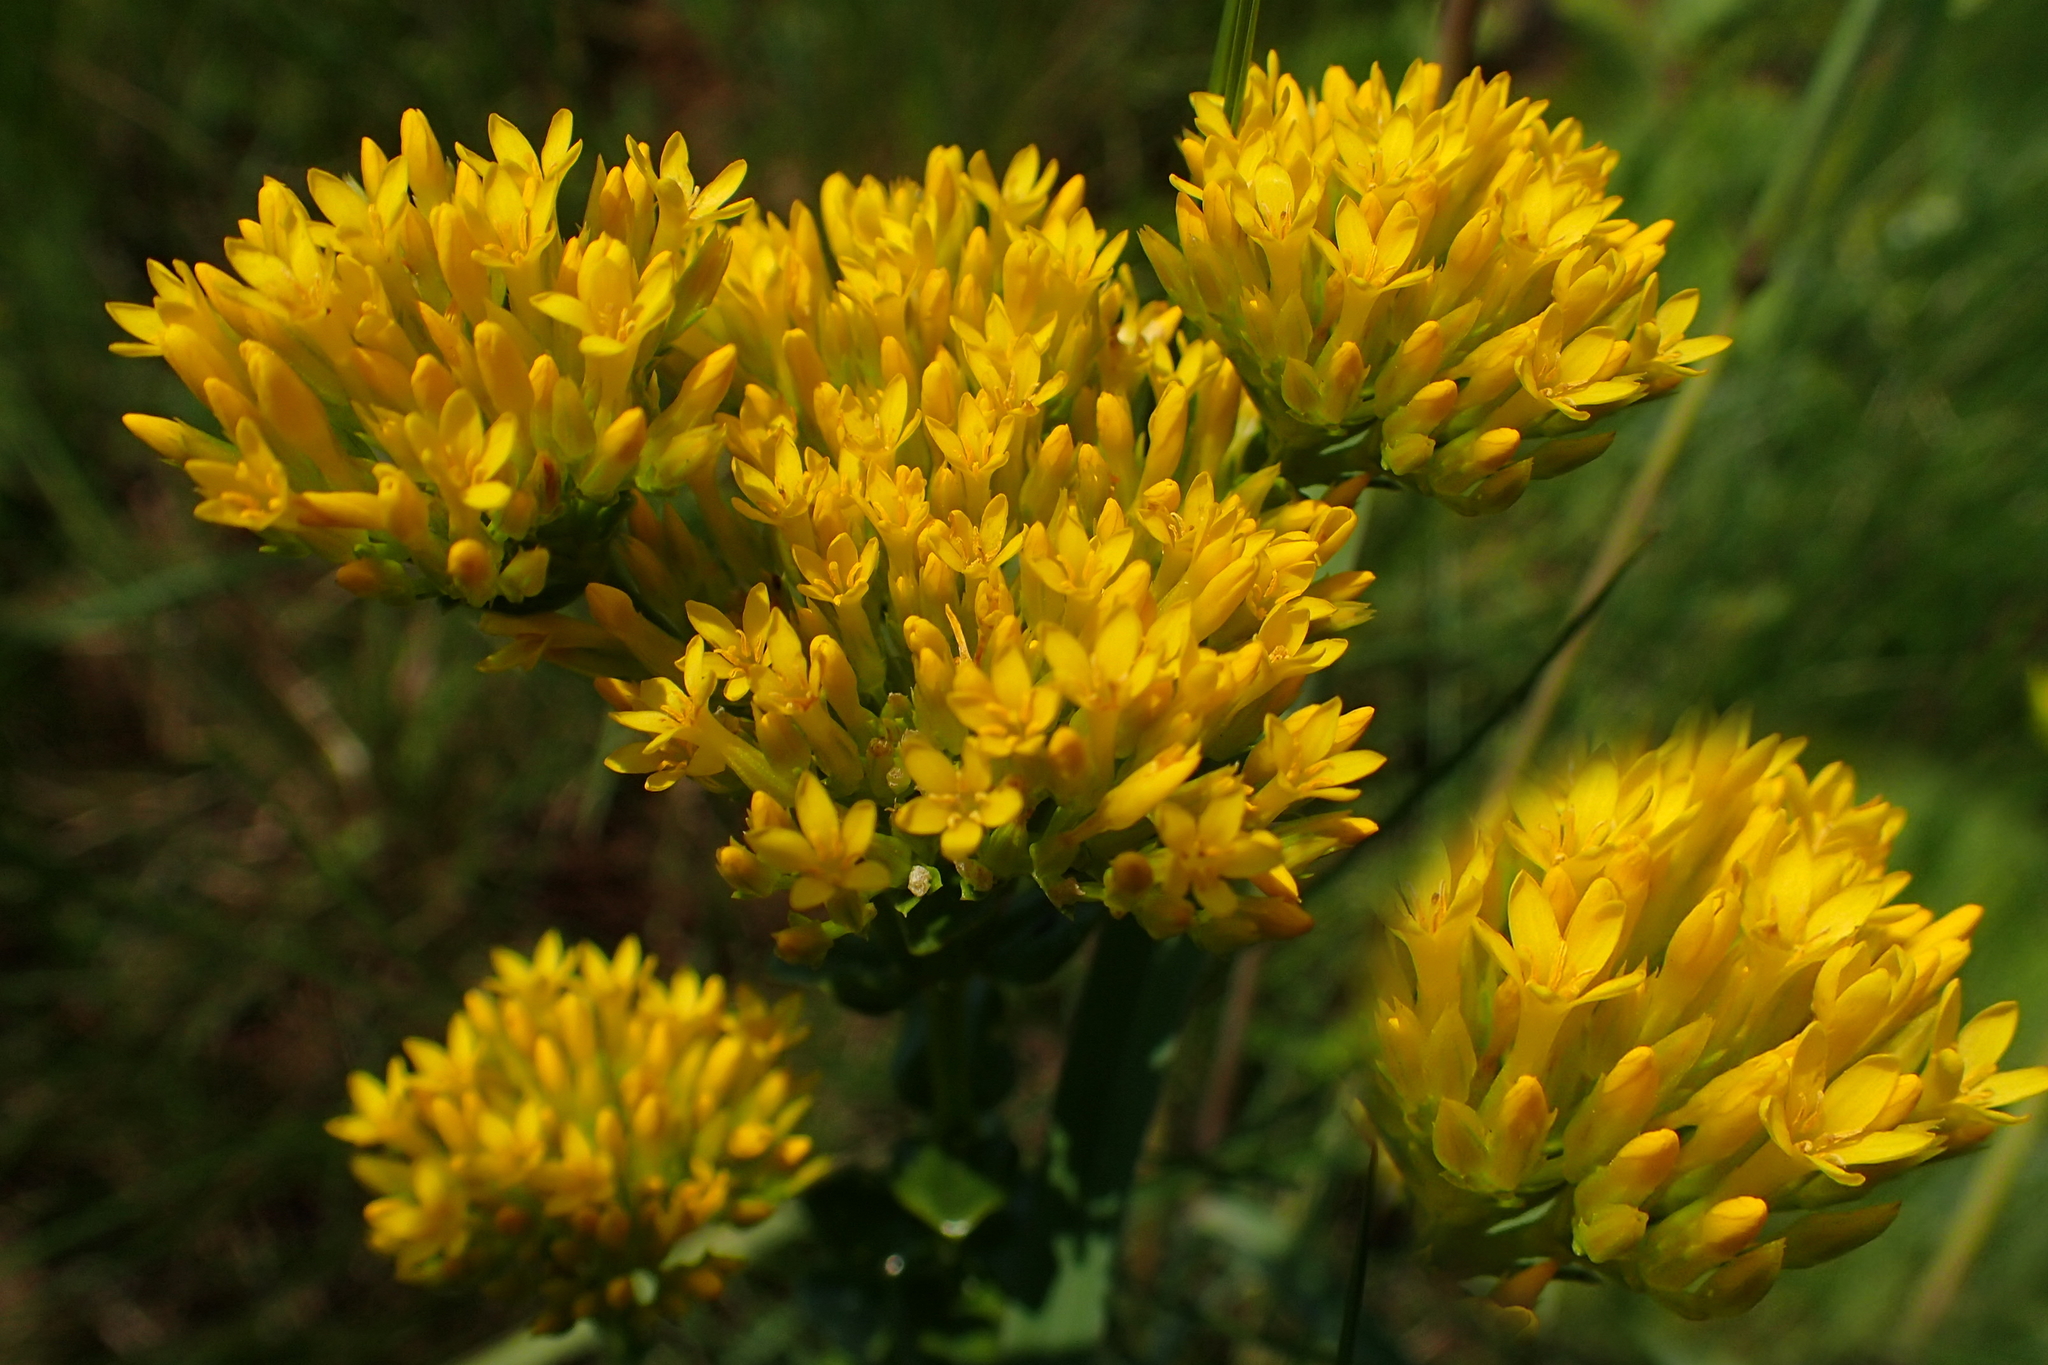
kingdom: Plantae
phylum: Tracheophyta
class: Magnoliopsida
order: Gentianales
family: Gentianaceae
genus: Sebaea
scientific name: Sebaea sedoides
